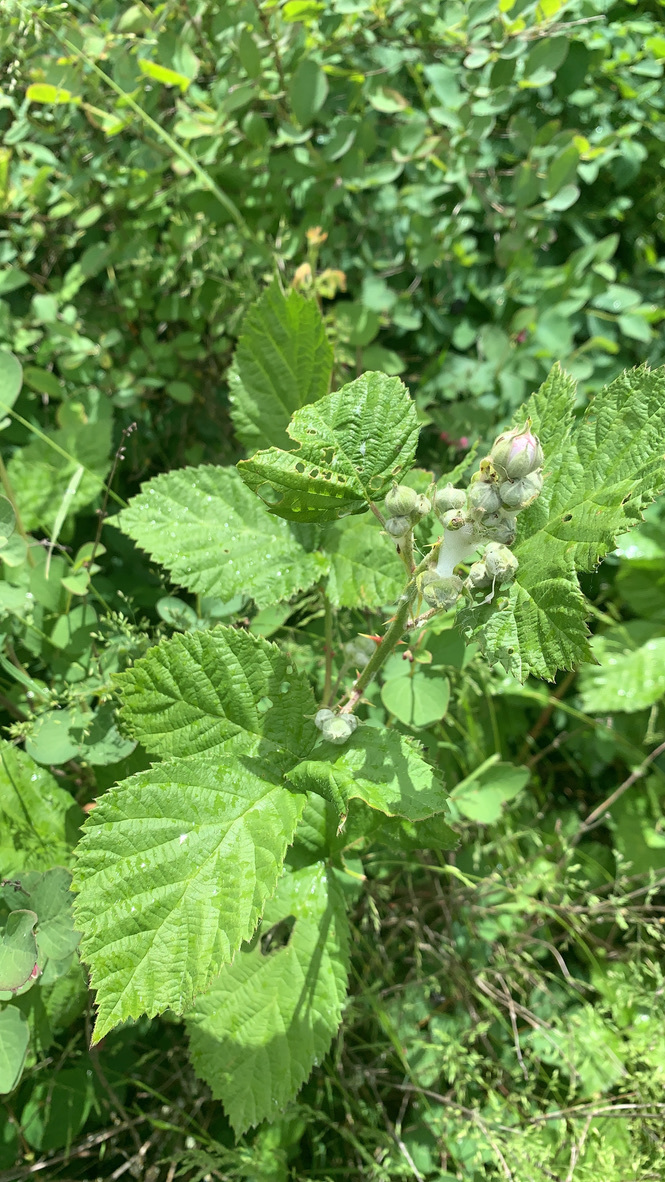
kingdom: Plantae
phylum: Tracheophyta
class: Magnoliopsida
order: Rosales
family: Rosaceae
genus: Rubus
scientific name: Rubus bifrons
